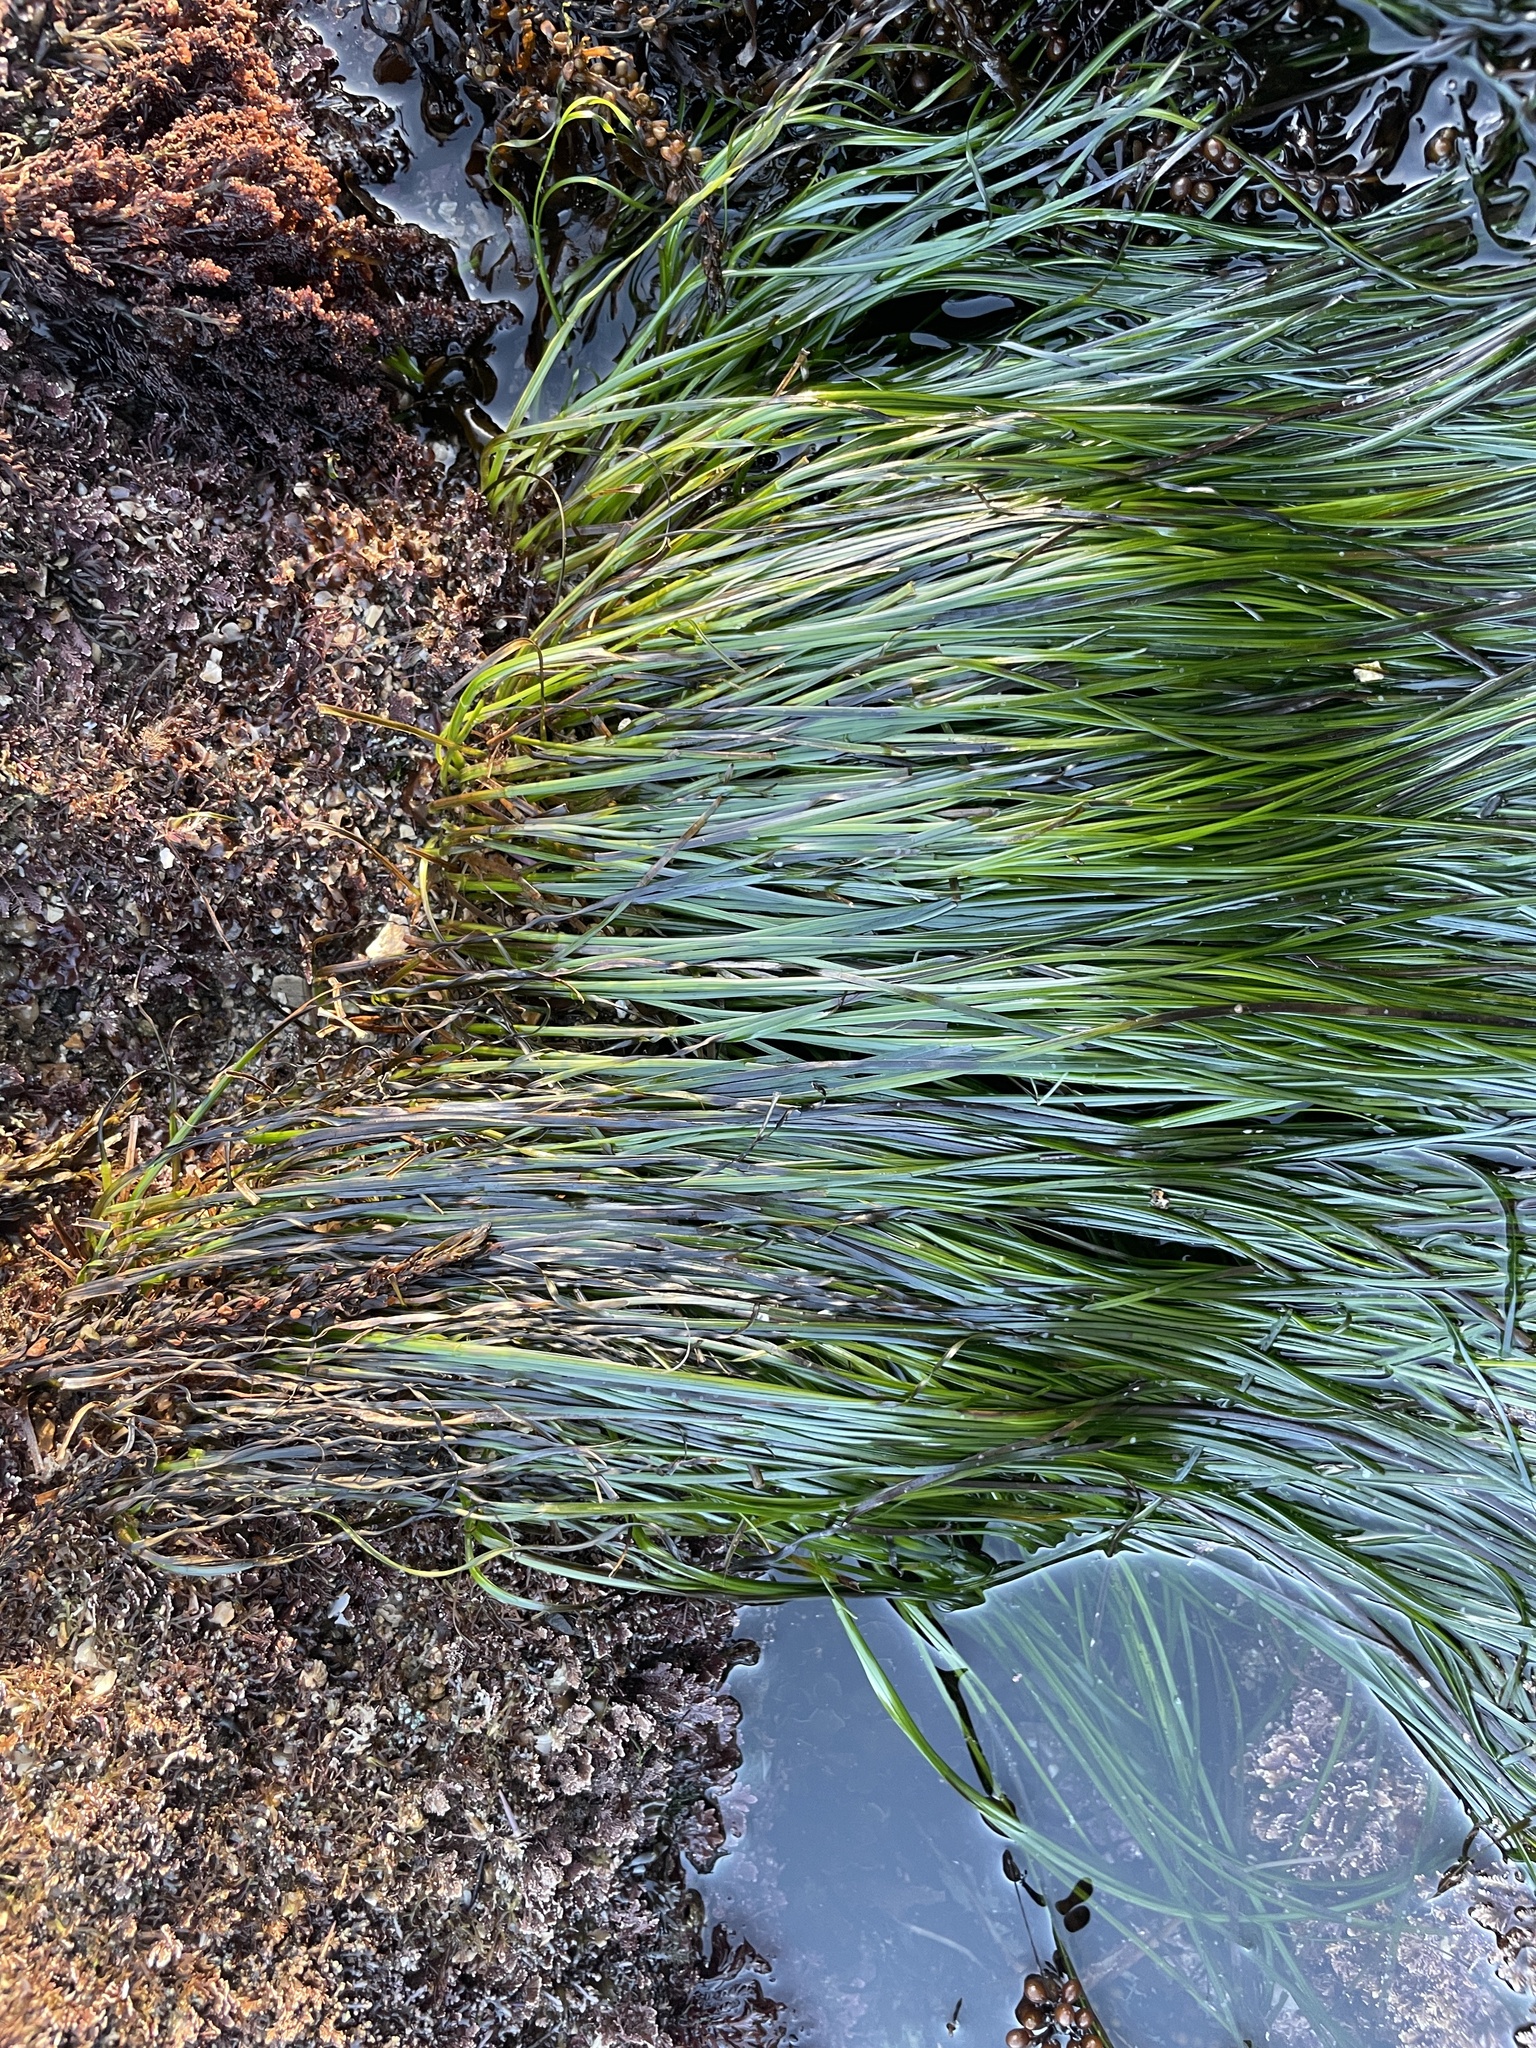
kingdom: Plantae
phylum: Tracheophyta
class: Liliopsida
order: Alismatales
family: Zosteraceae
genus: Phyllospadix
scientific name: Phyllospadix torreyi
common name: Surfgrass
